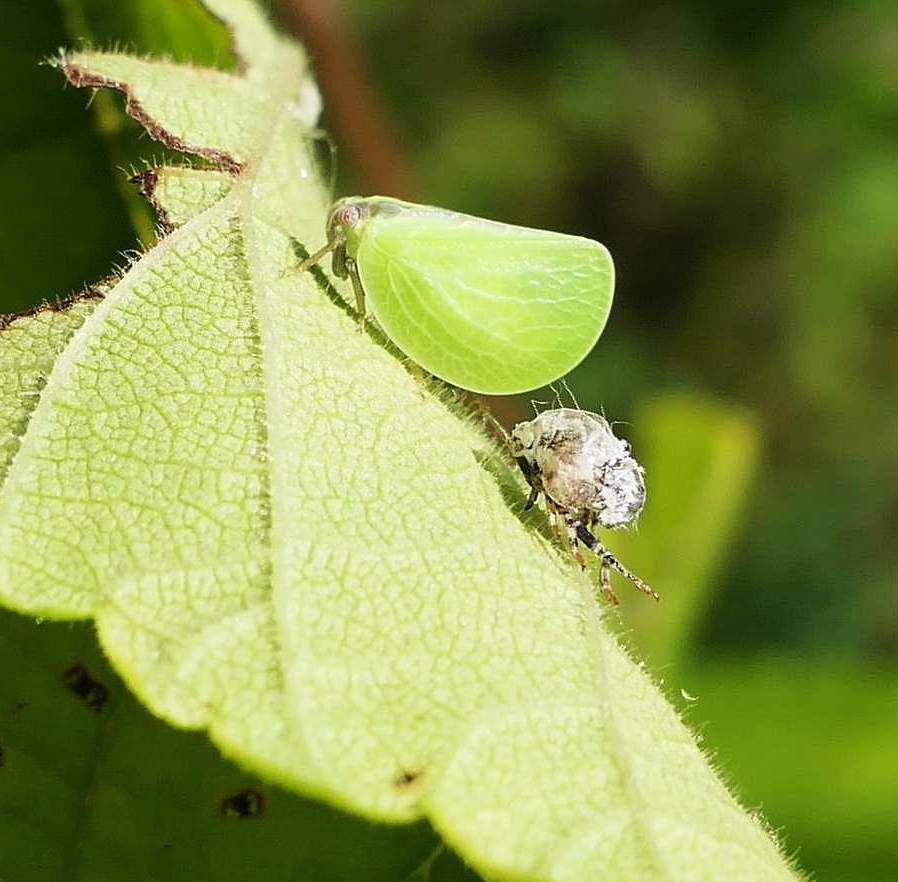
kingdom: Animalia
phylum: Arthropoda
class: Insecta
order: Hemiptera
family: Acanaloniidae
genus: Acanalonia
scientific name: Acanalonia bivittata
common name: Two-striped planthopper
